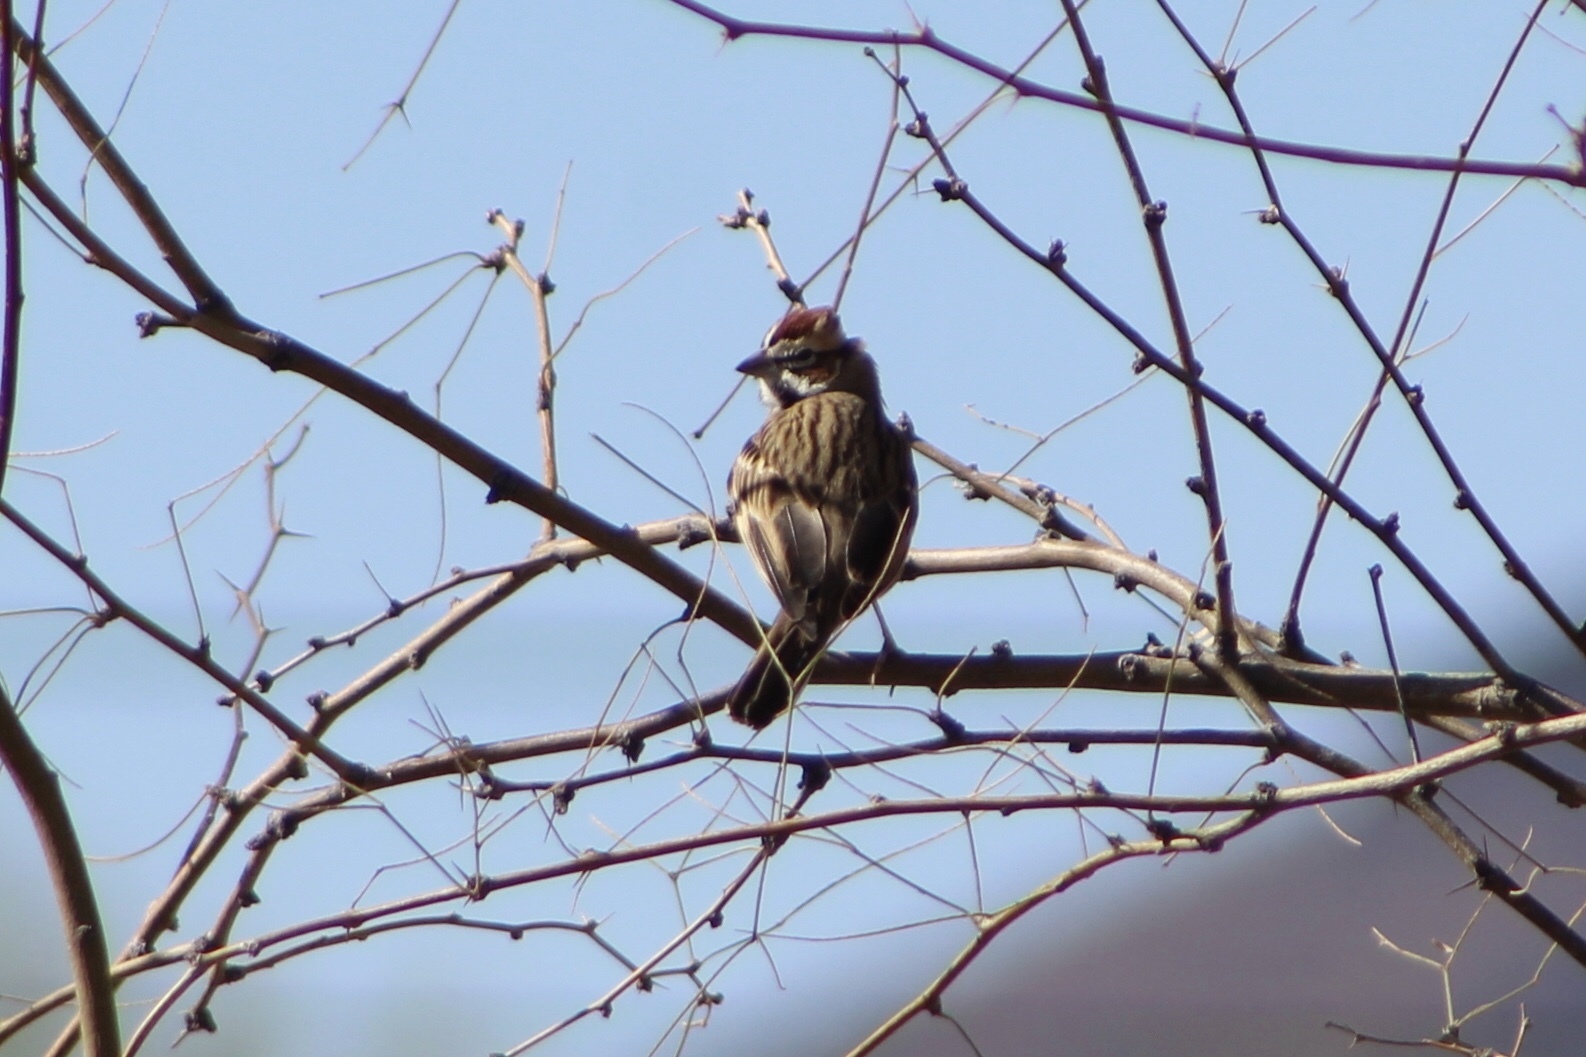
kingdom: Animalia
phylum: Chordata
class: Aves
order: Passeriformes
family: Passerellidae
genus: Chondestes
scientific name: Chondestes grammacus
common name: Lark sparrow
